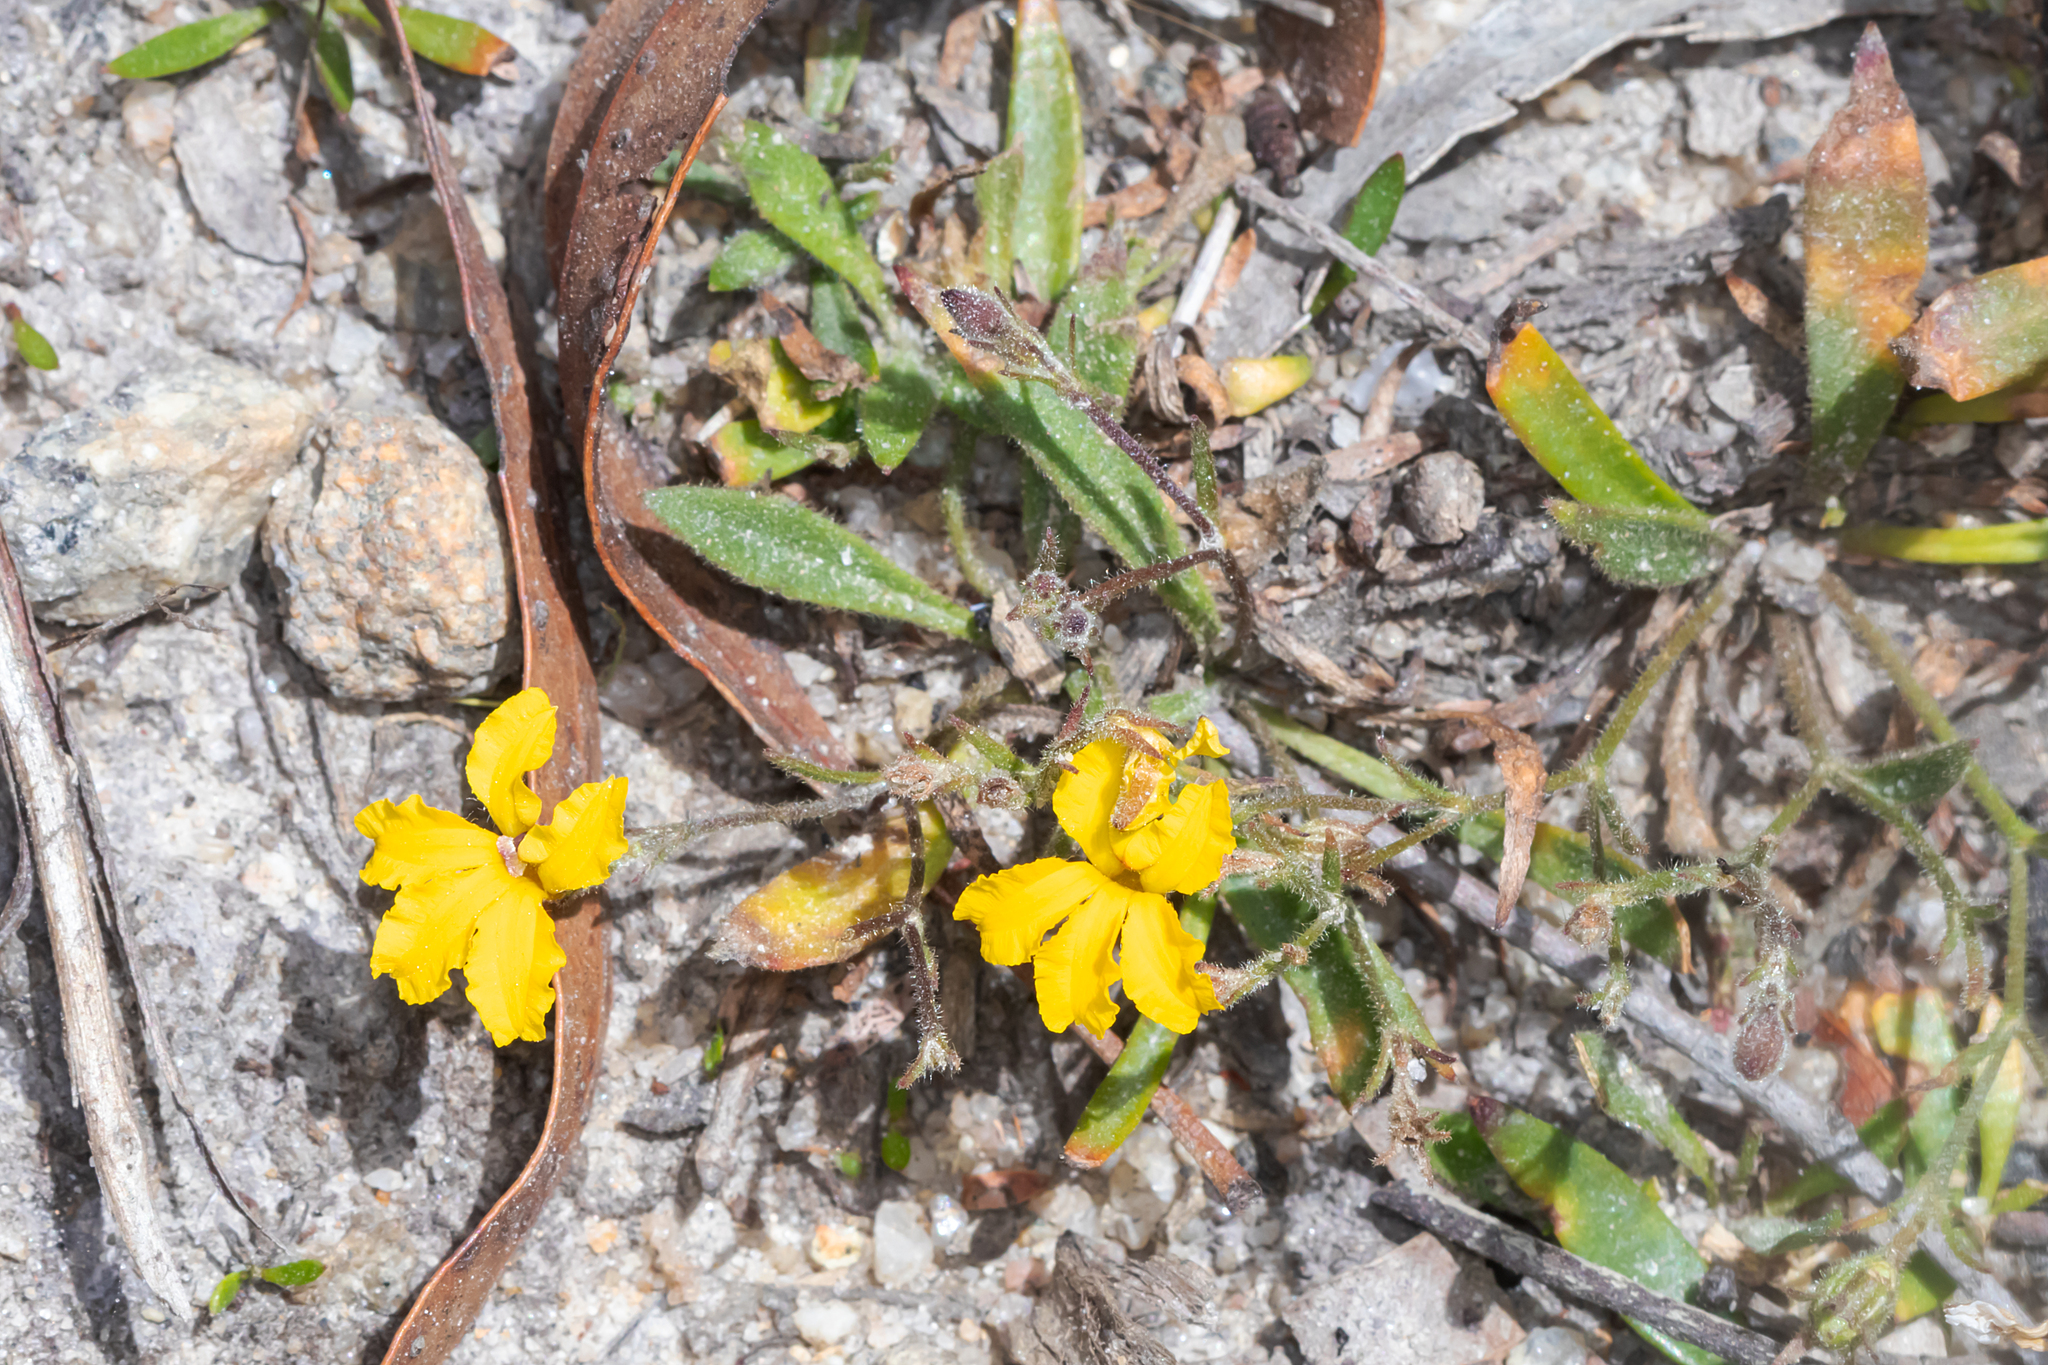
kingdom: Plantae
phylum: Tracheophyta
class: Magnoliopsida
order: Asterales
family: Goodeniaceae
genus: Goodenia
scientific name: Goodenia humilis
